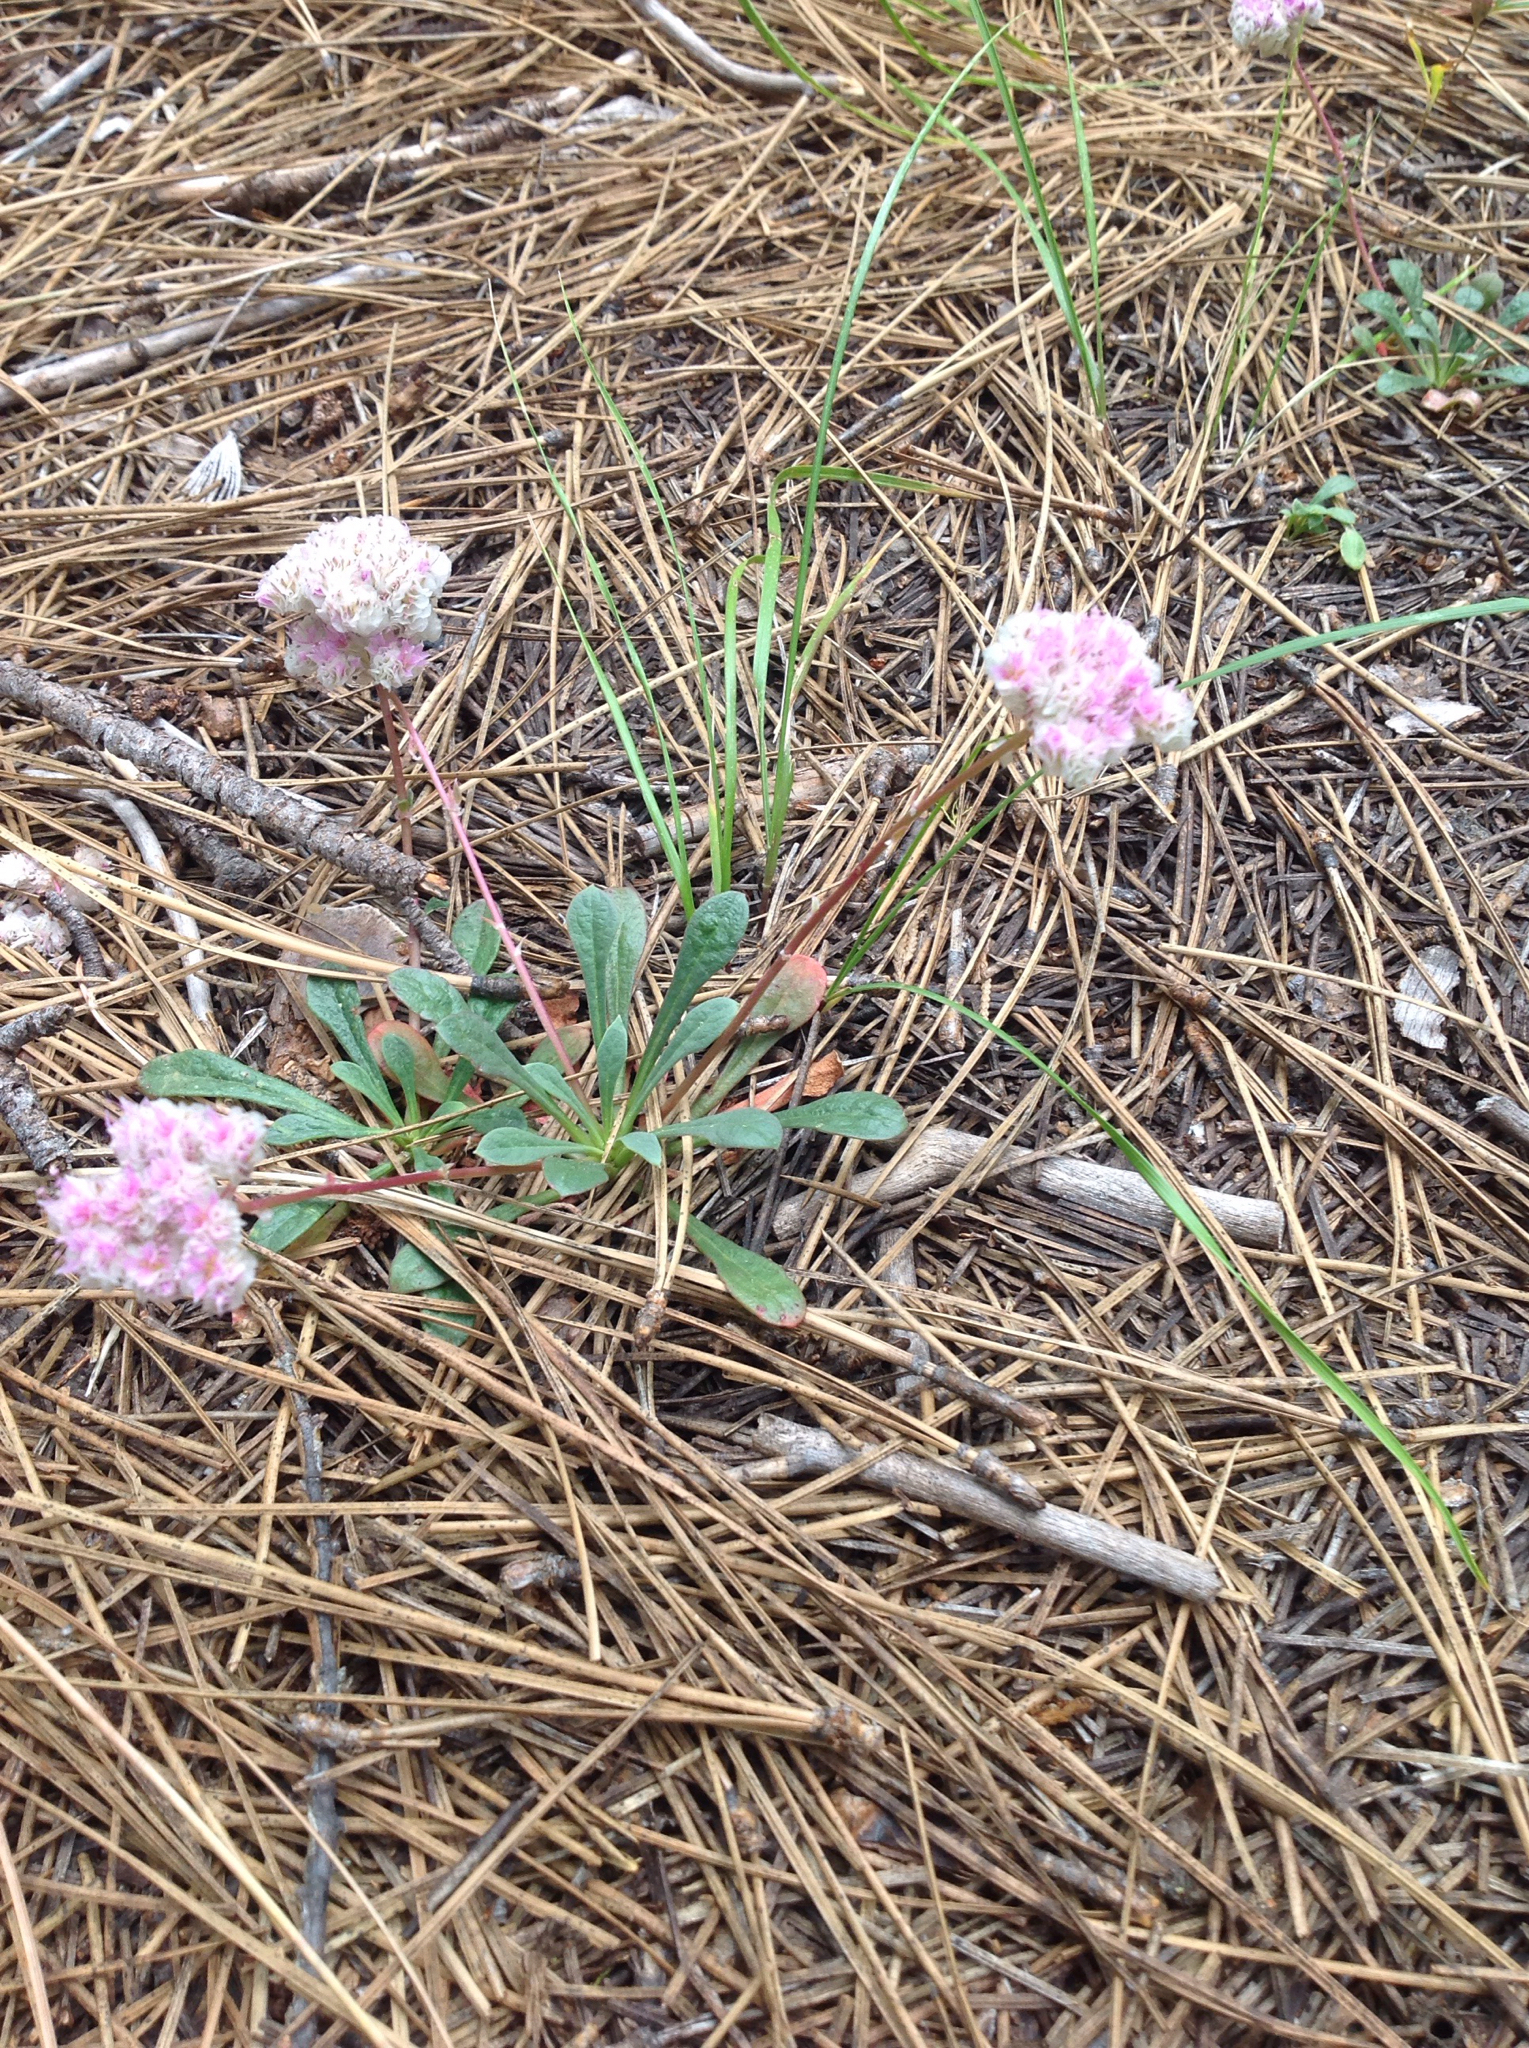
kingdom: Plantae
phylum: Tracheophyta
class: Magnoliopsida
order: Caryophyllales
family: Montiaceae
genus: Calyptridium
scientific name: Calyptridium monospermum
